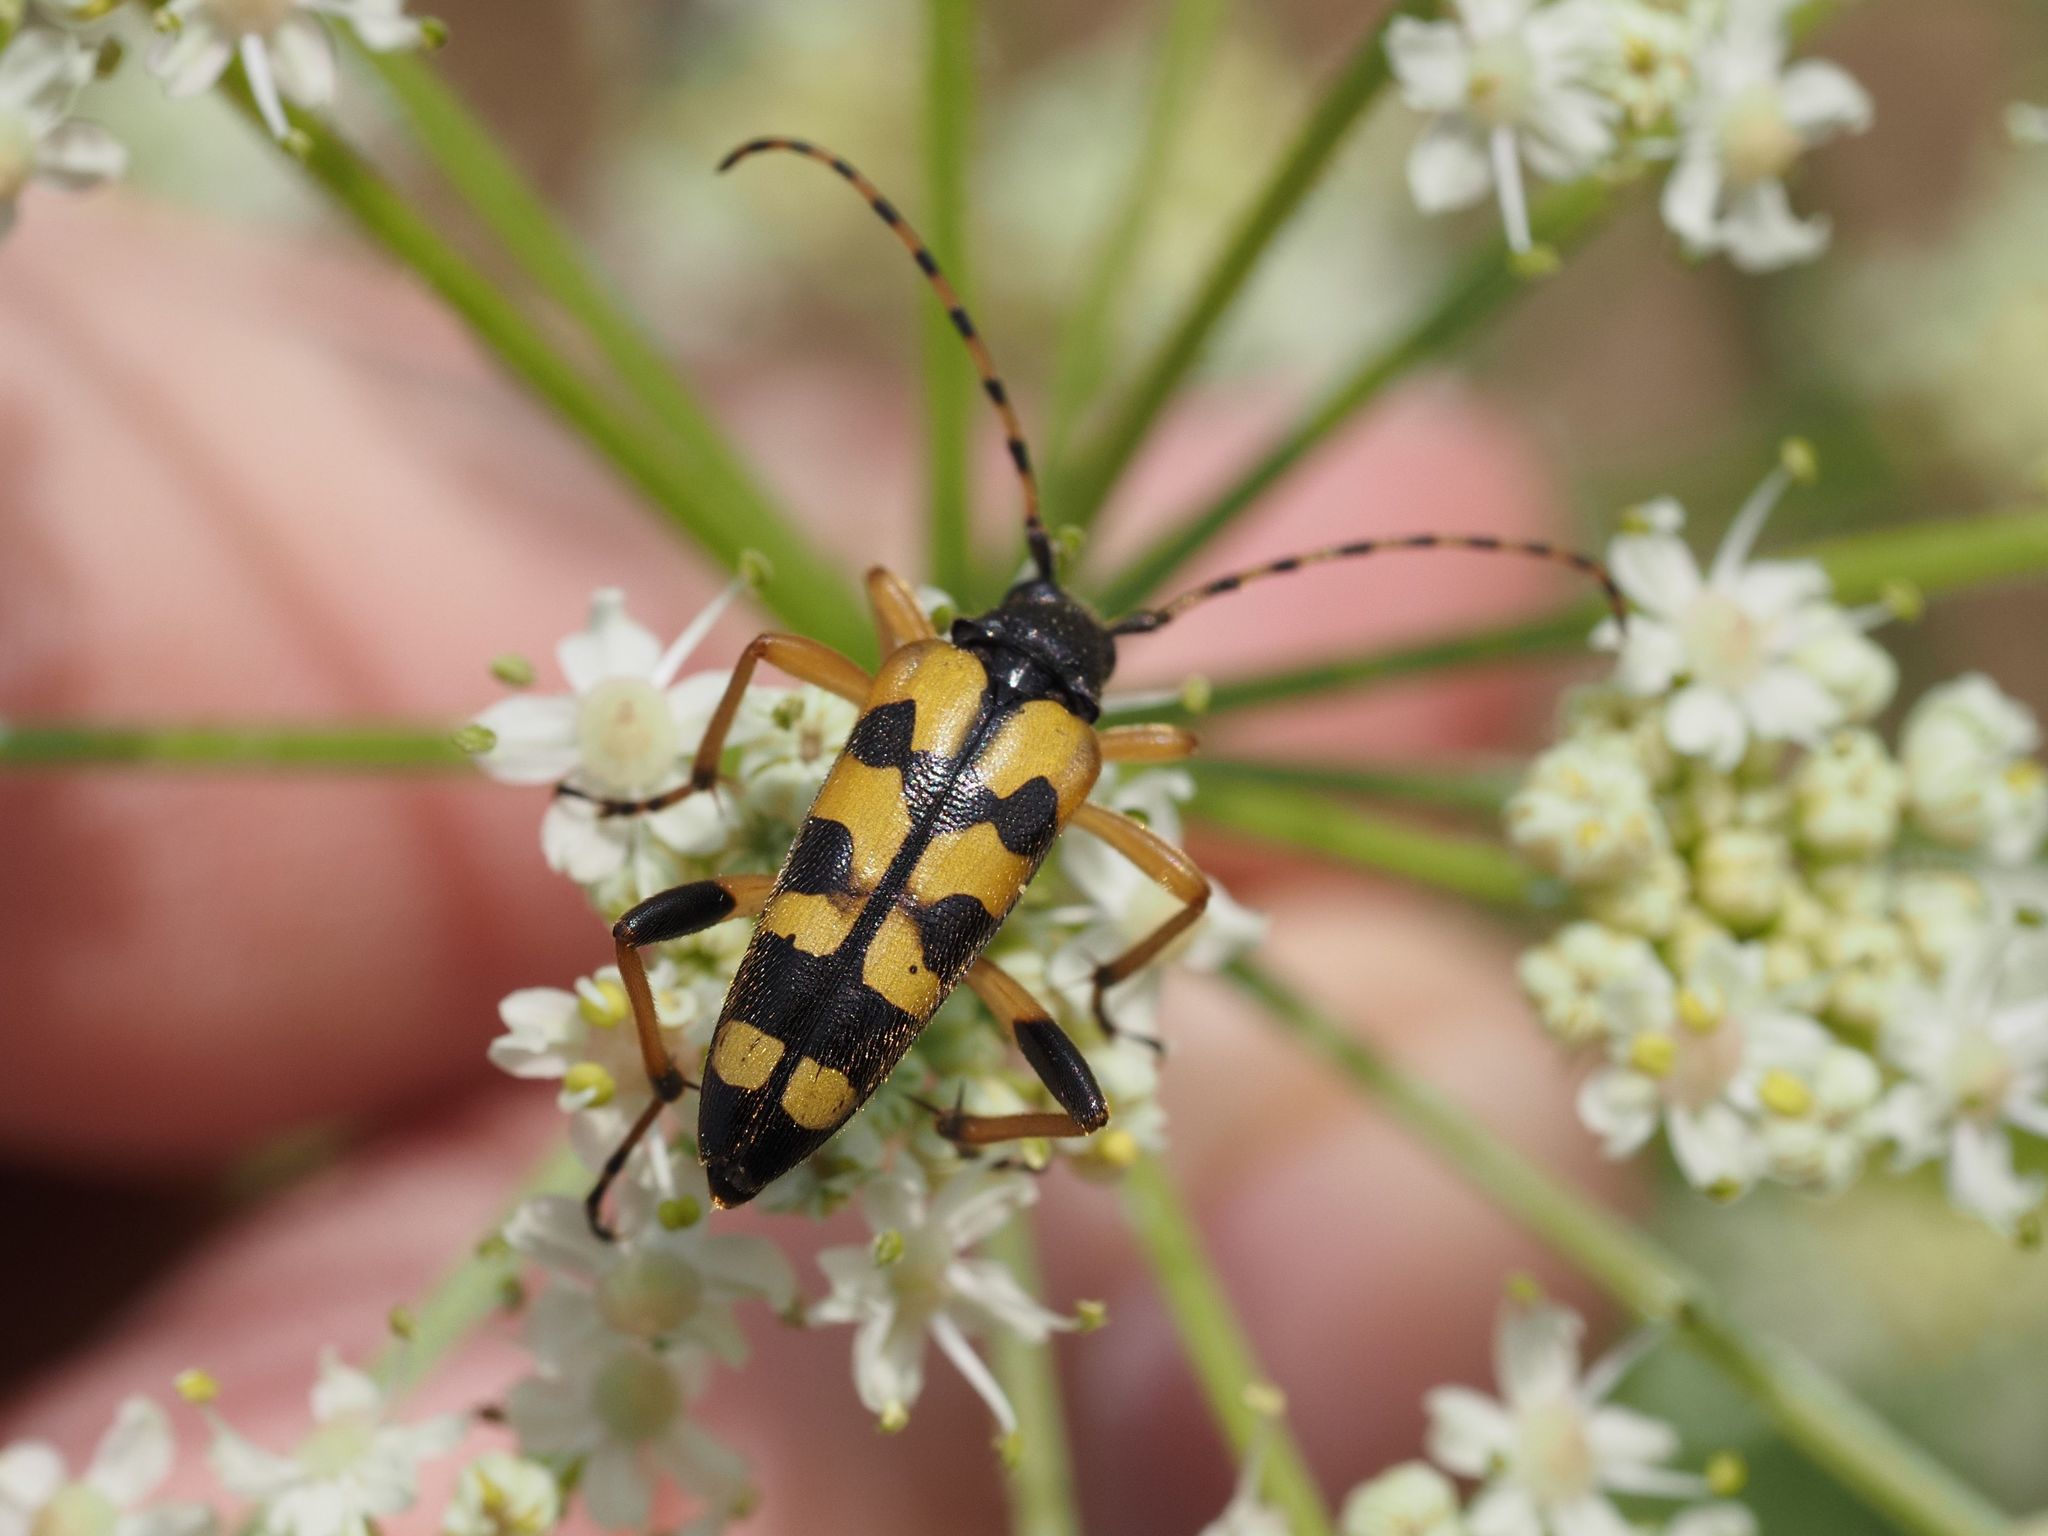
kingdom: Animalia
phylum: Arthropoda
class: Insecta
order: Coleoptera
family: Cerambycidae
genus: Rutpela
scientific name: Rutpela maculata
